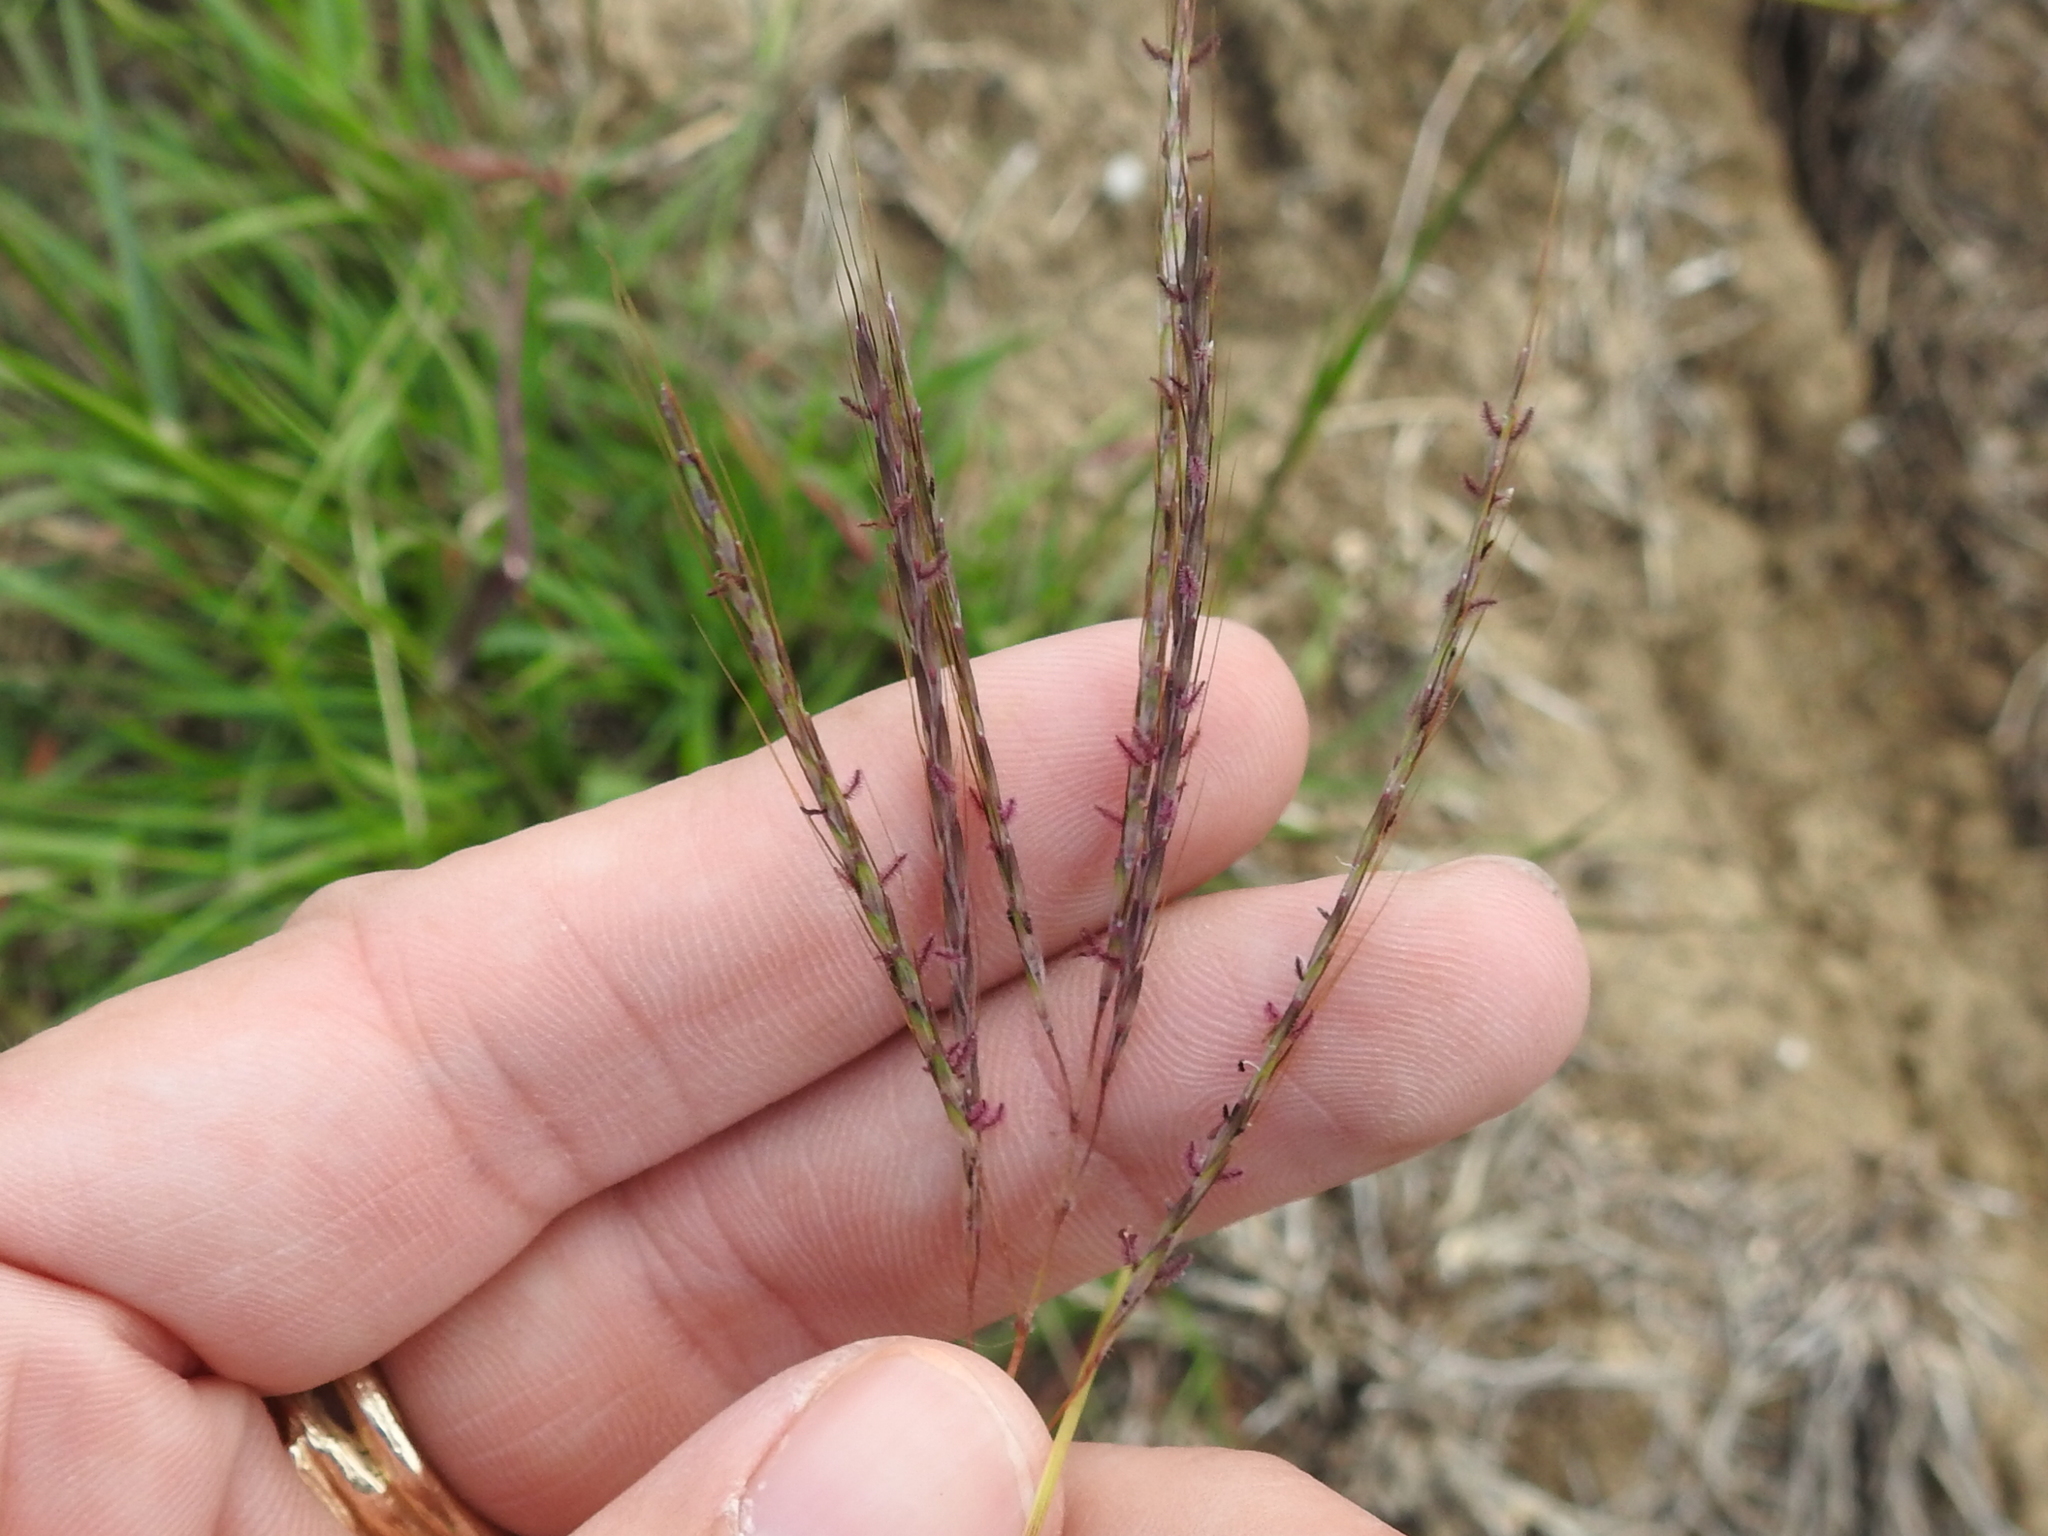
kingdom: Plantae
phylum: Tracheophyta
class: Liliopsida
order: Poales
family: Poaceae
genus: Bothriochloa
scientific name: Bothriochloa ischaemum
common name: Yellow bluestem
